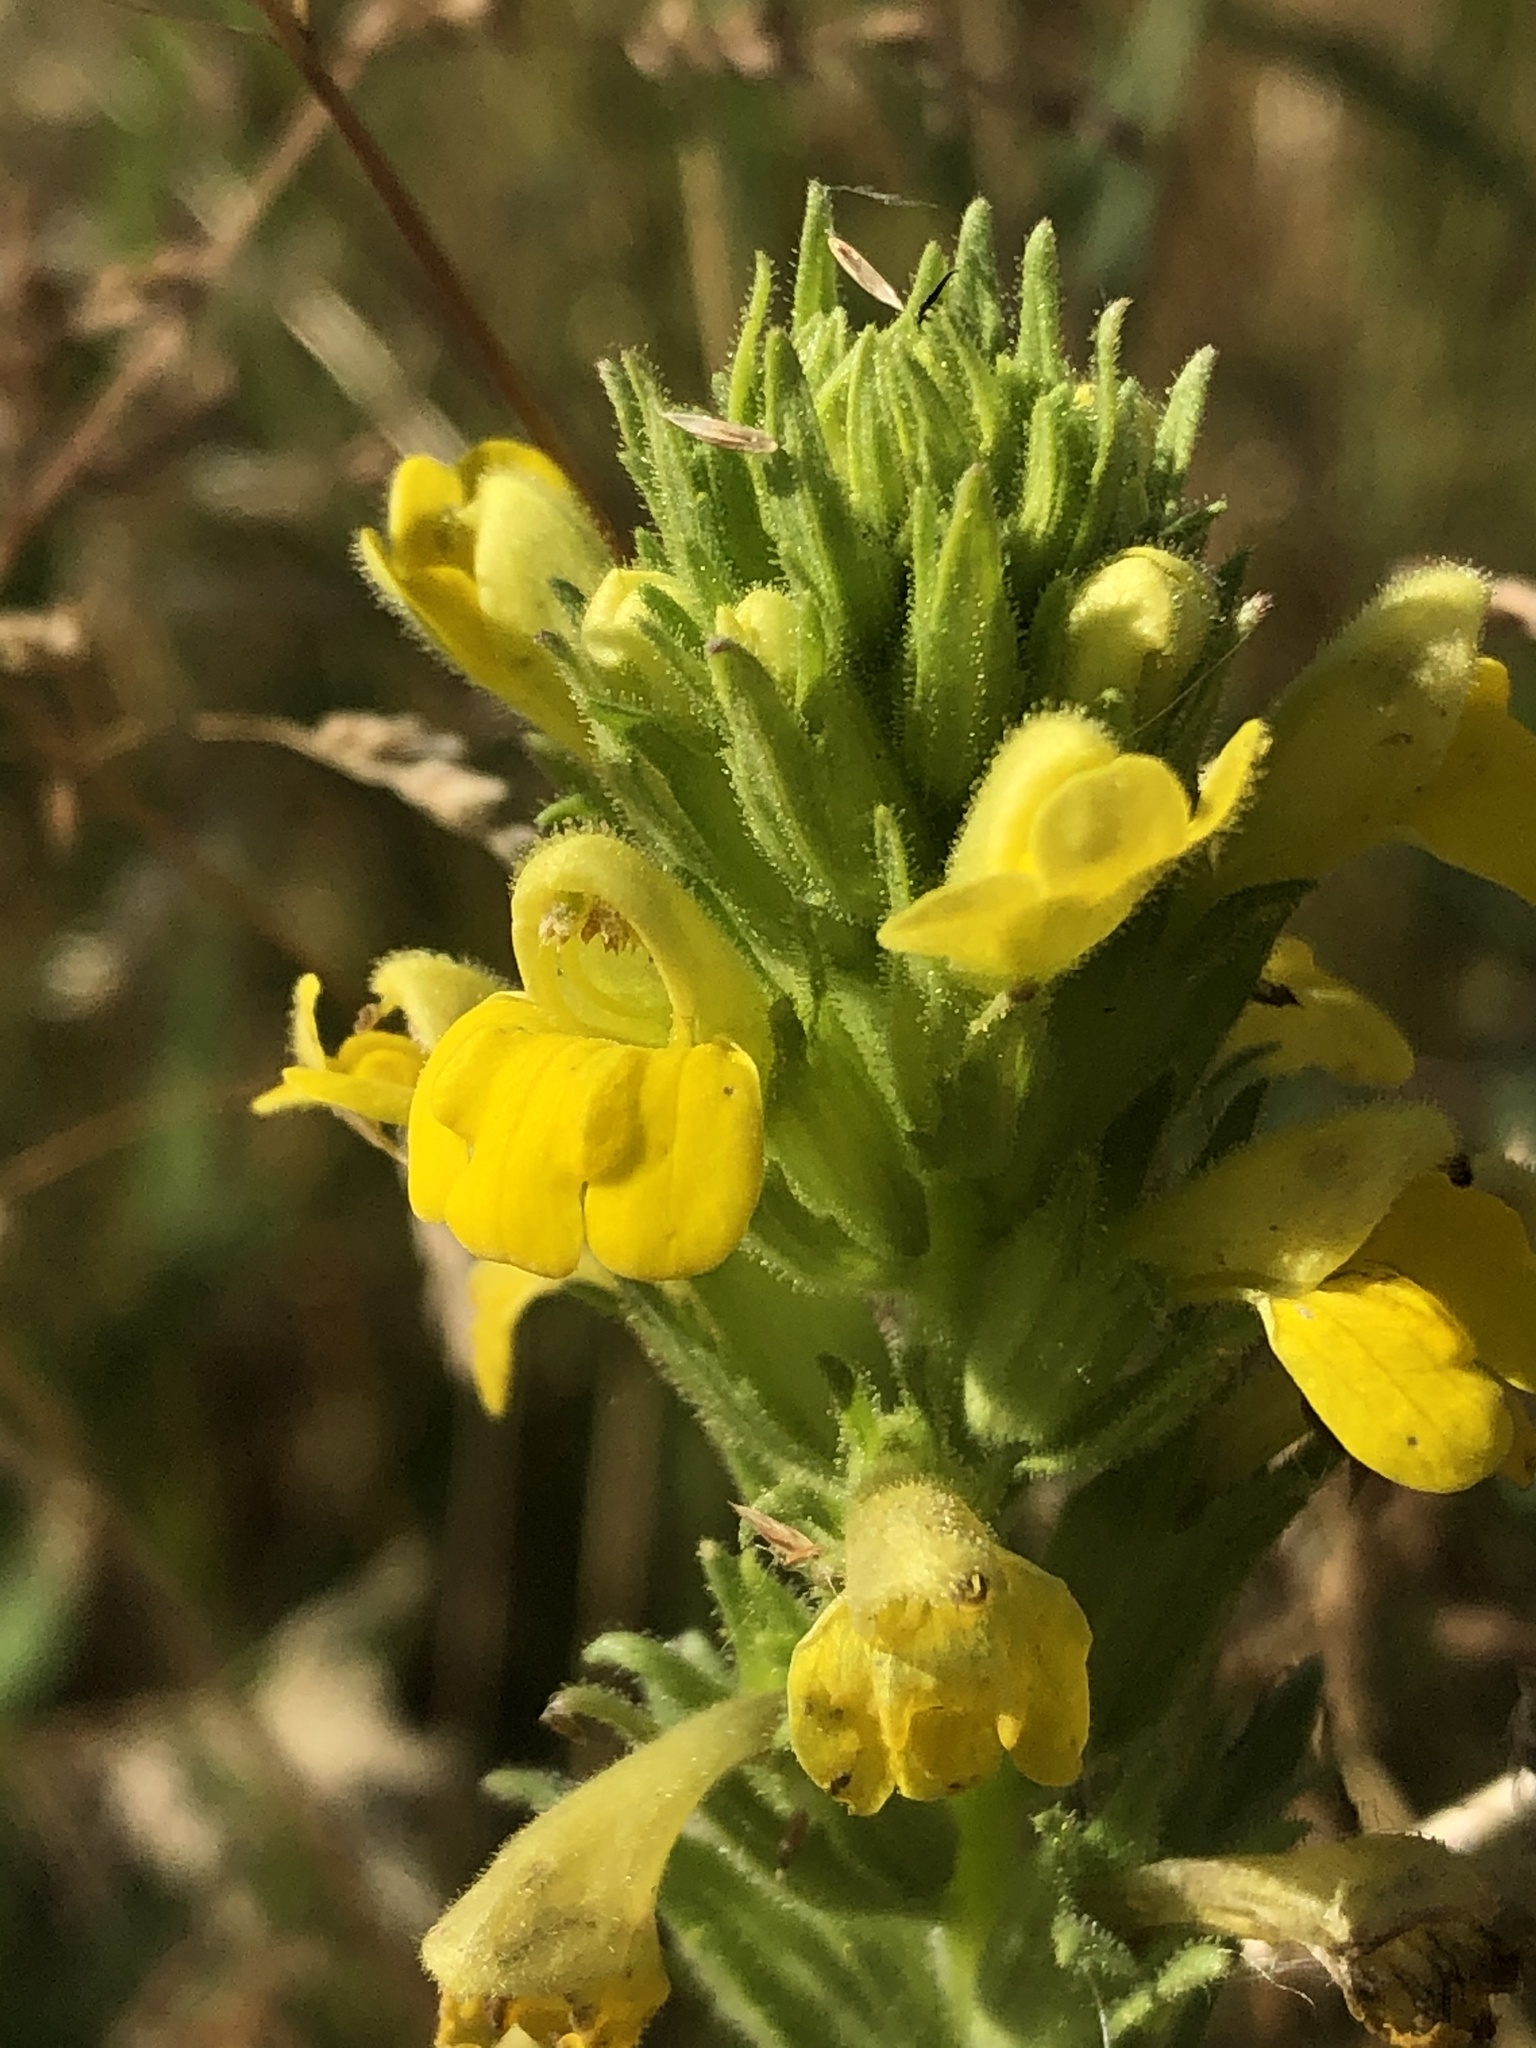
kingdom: Plantae
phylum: Tracheophyta
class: Magnoliopsida
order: Lamiales
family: Orobanchaceae
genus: Bellardia
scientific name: Bellardia viscosa
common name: Sticky parentucellia
